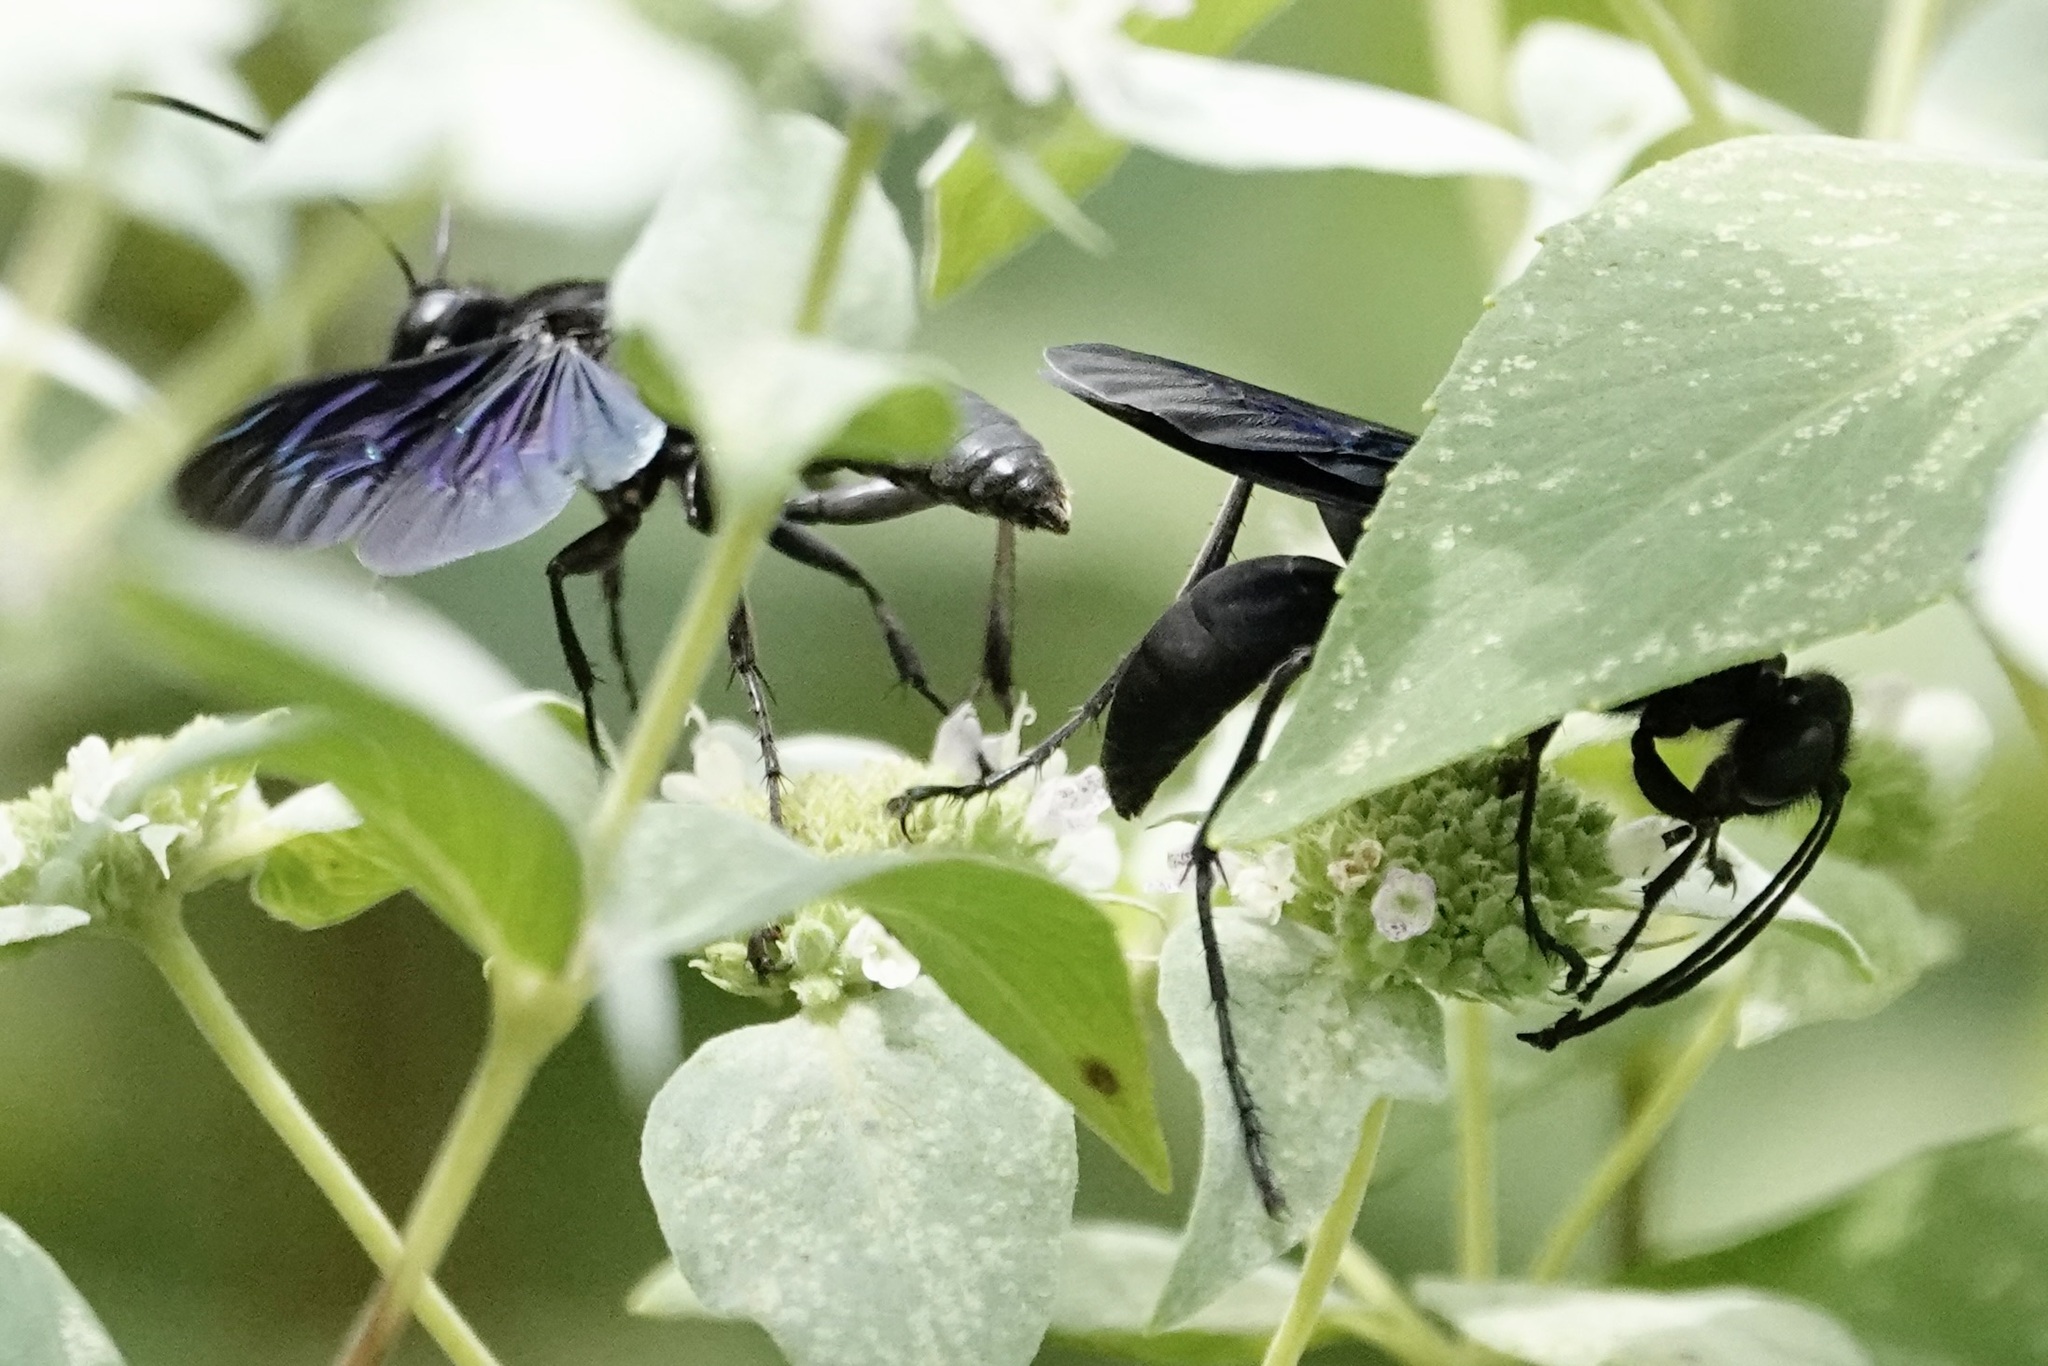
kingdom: Animalia
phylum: Arthropoda
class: Insecta
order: Hymenoptera
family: Sphecidae
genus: Sphex
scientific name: Sphex pensylvanicus
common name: Great black digger wasp
